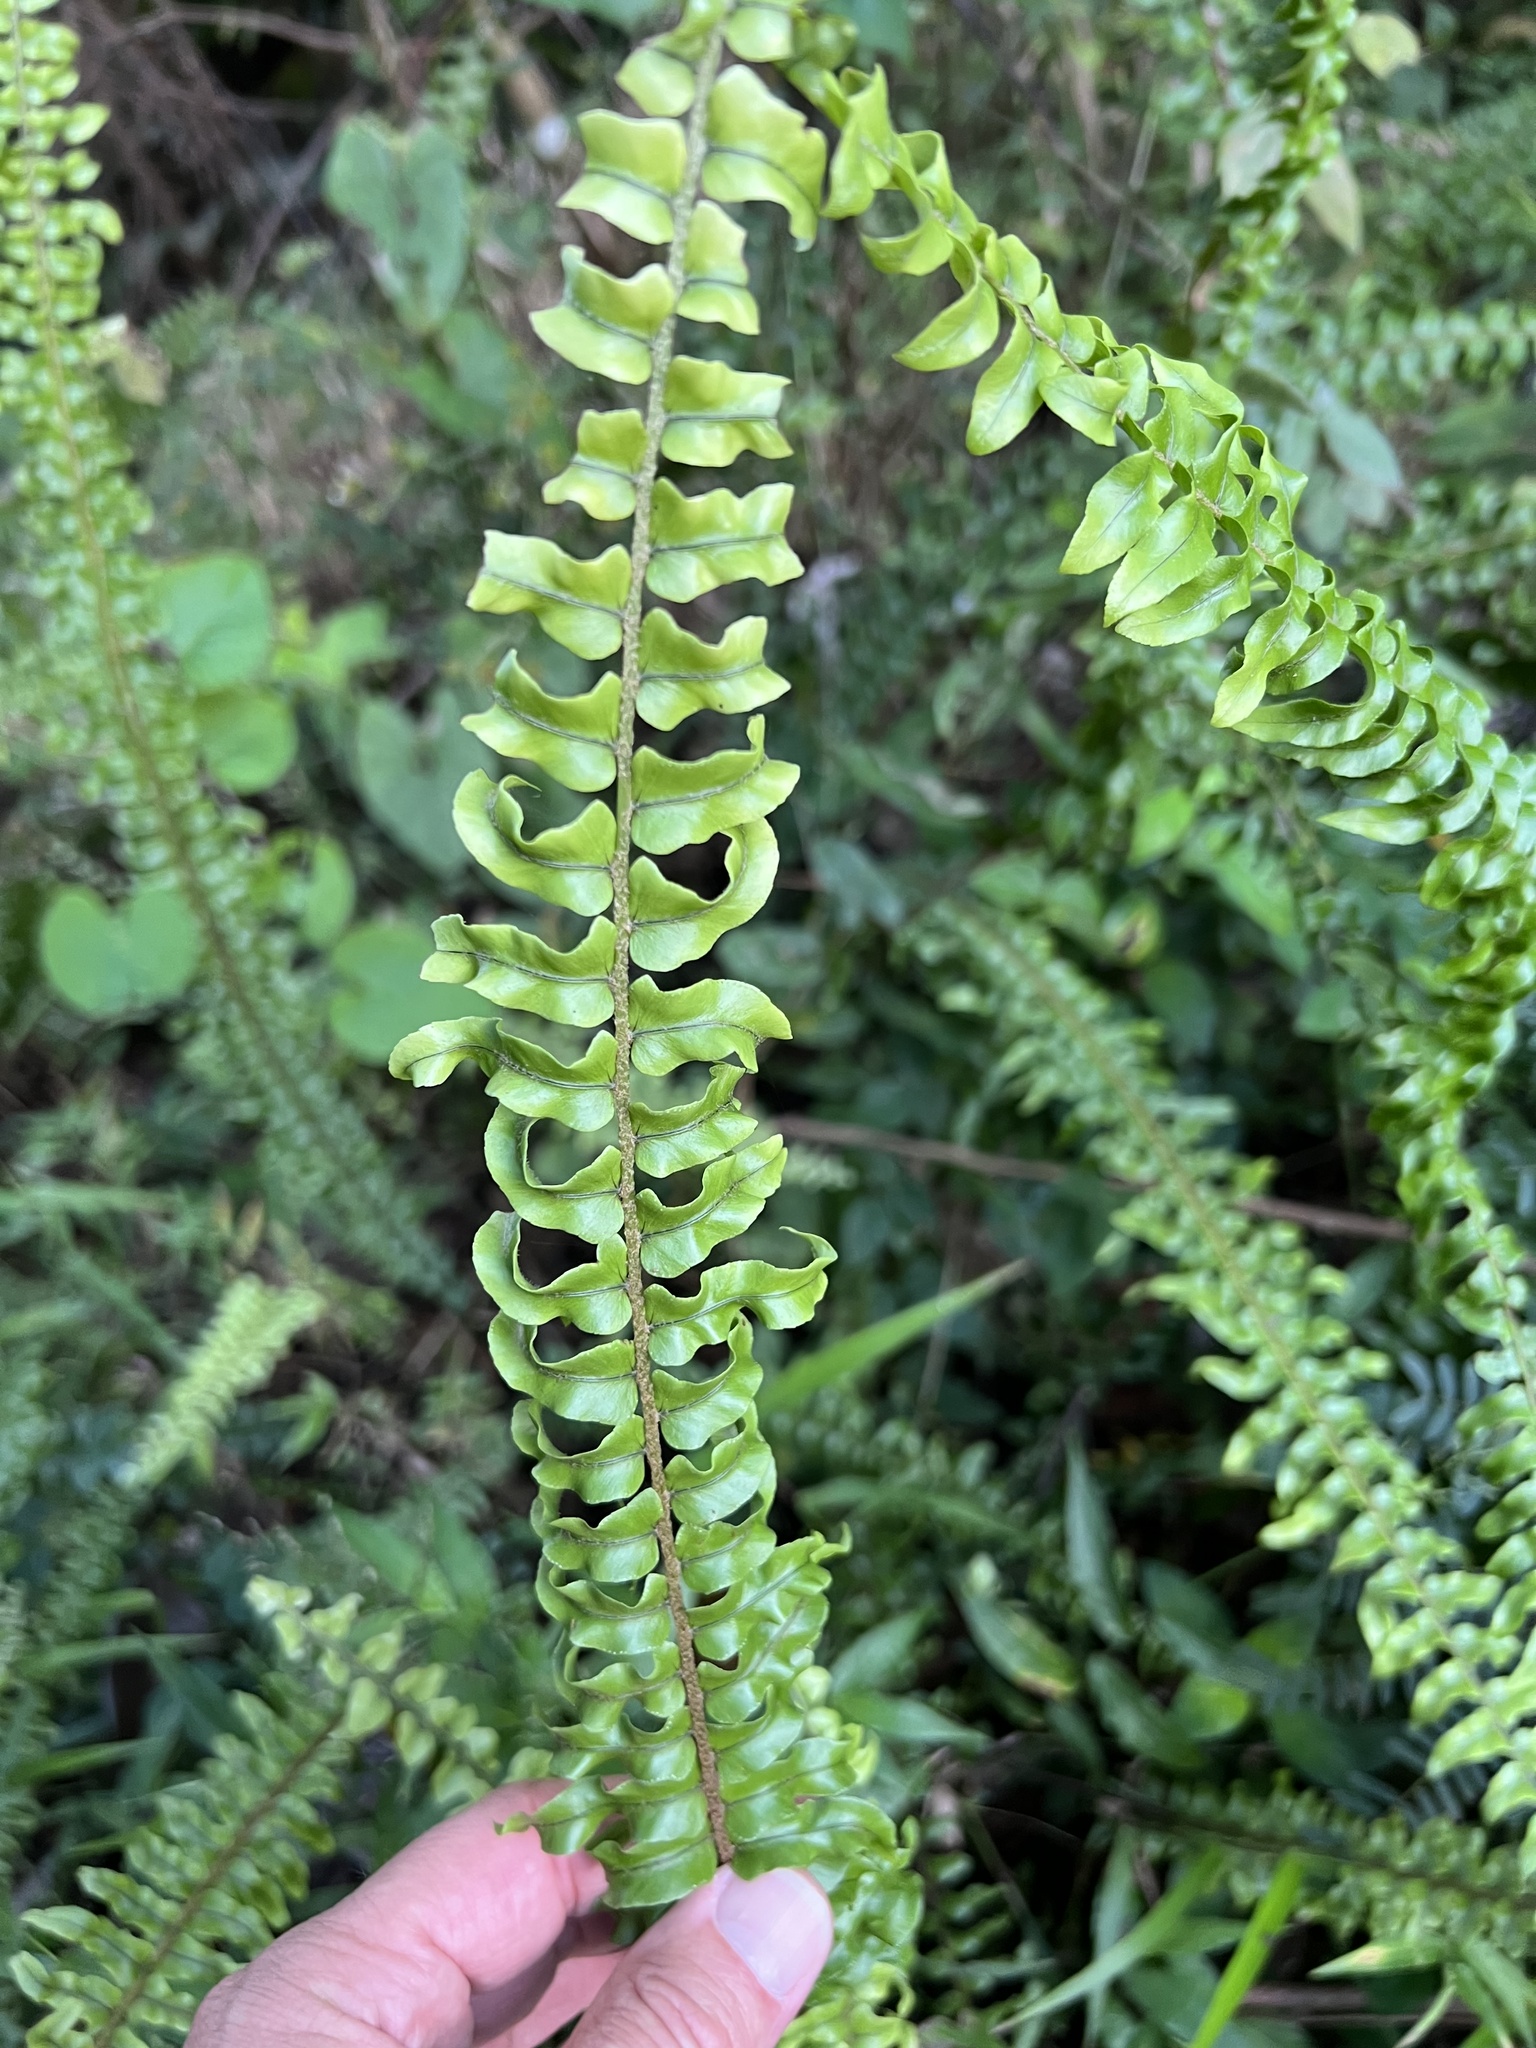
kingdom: Plantae
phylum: Tracheophyta
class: Polypodiopsida
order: Polypodiales
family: Nephrolepidaceae
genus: Nephrolepis
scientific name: Nephrolepis brownii
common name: Asian swordfern
